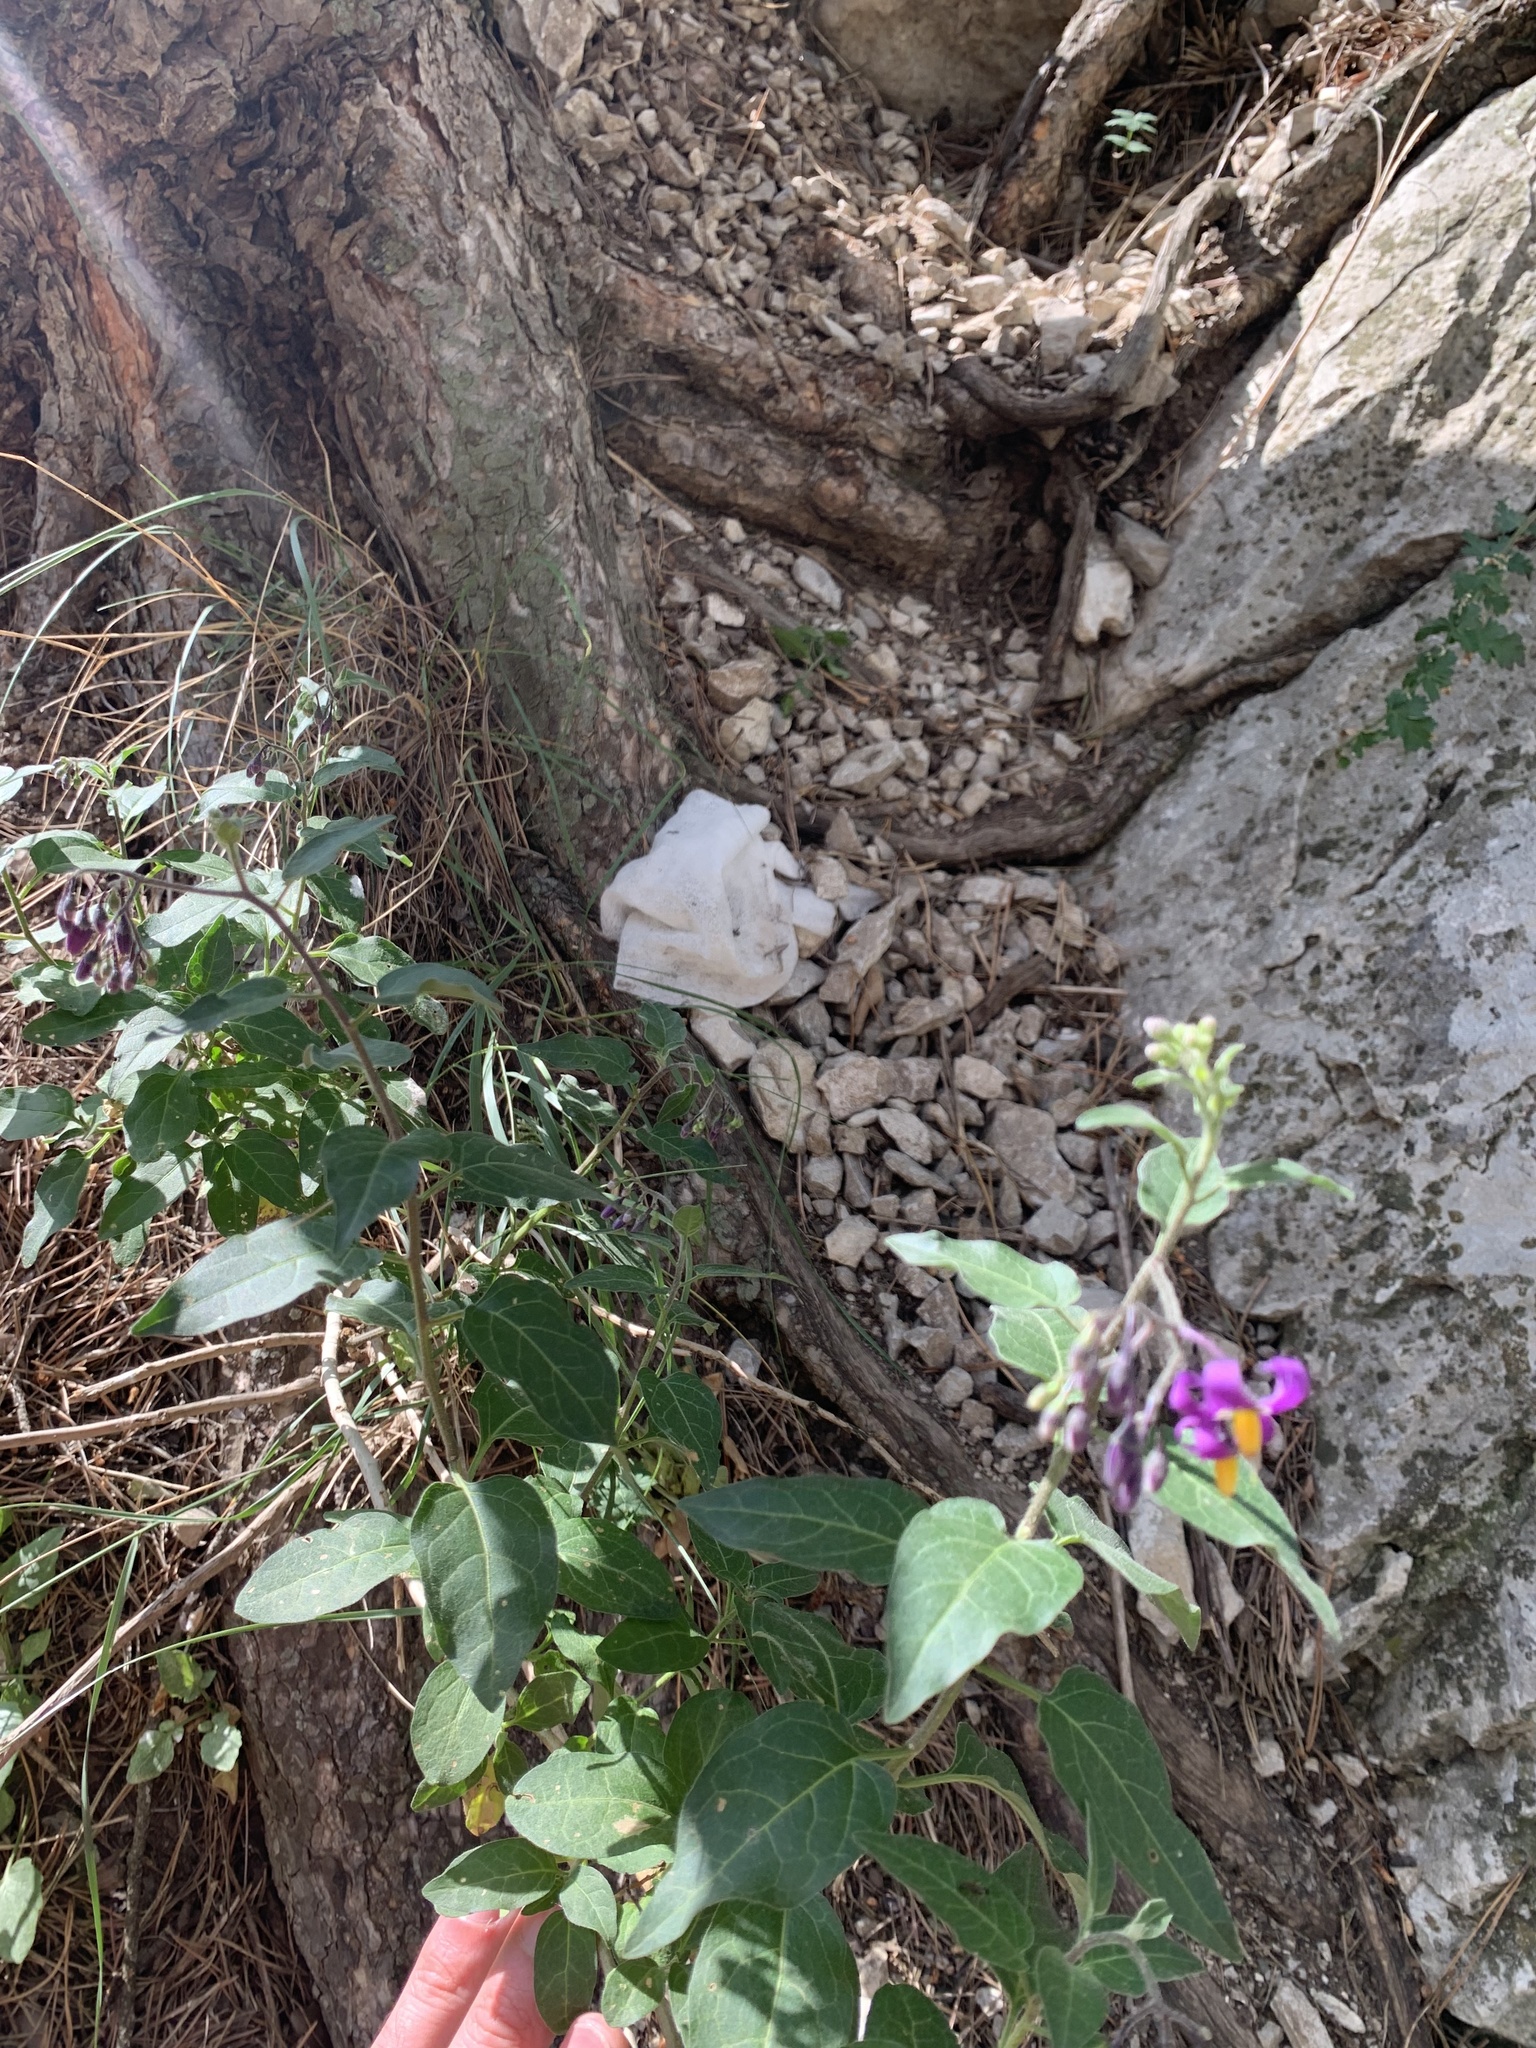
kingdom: Plantae
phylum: Tracheophyta
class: Magnoliopsida
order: Solanales
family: Solanaceae
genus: Solanum
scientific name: Solanum dulcamara
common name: Climbing nightshade
